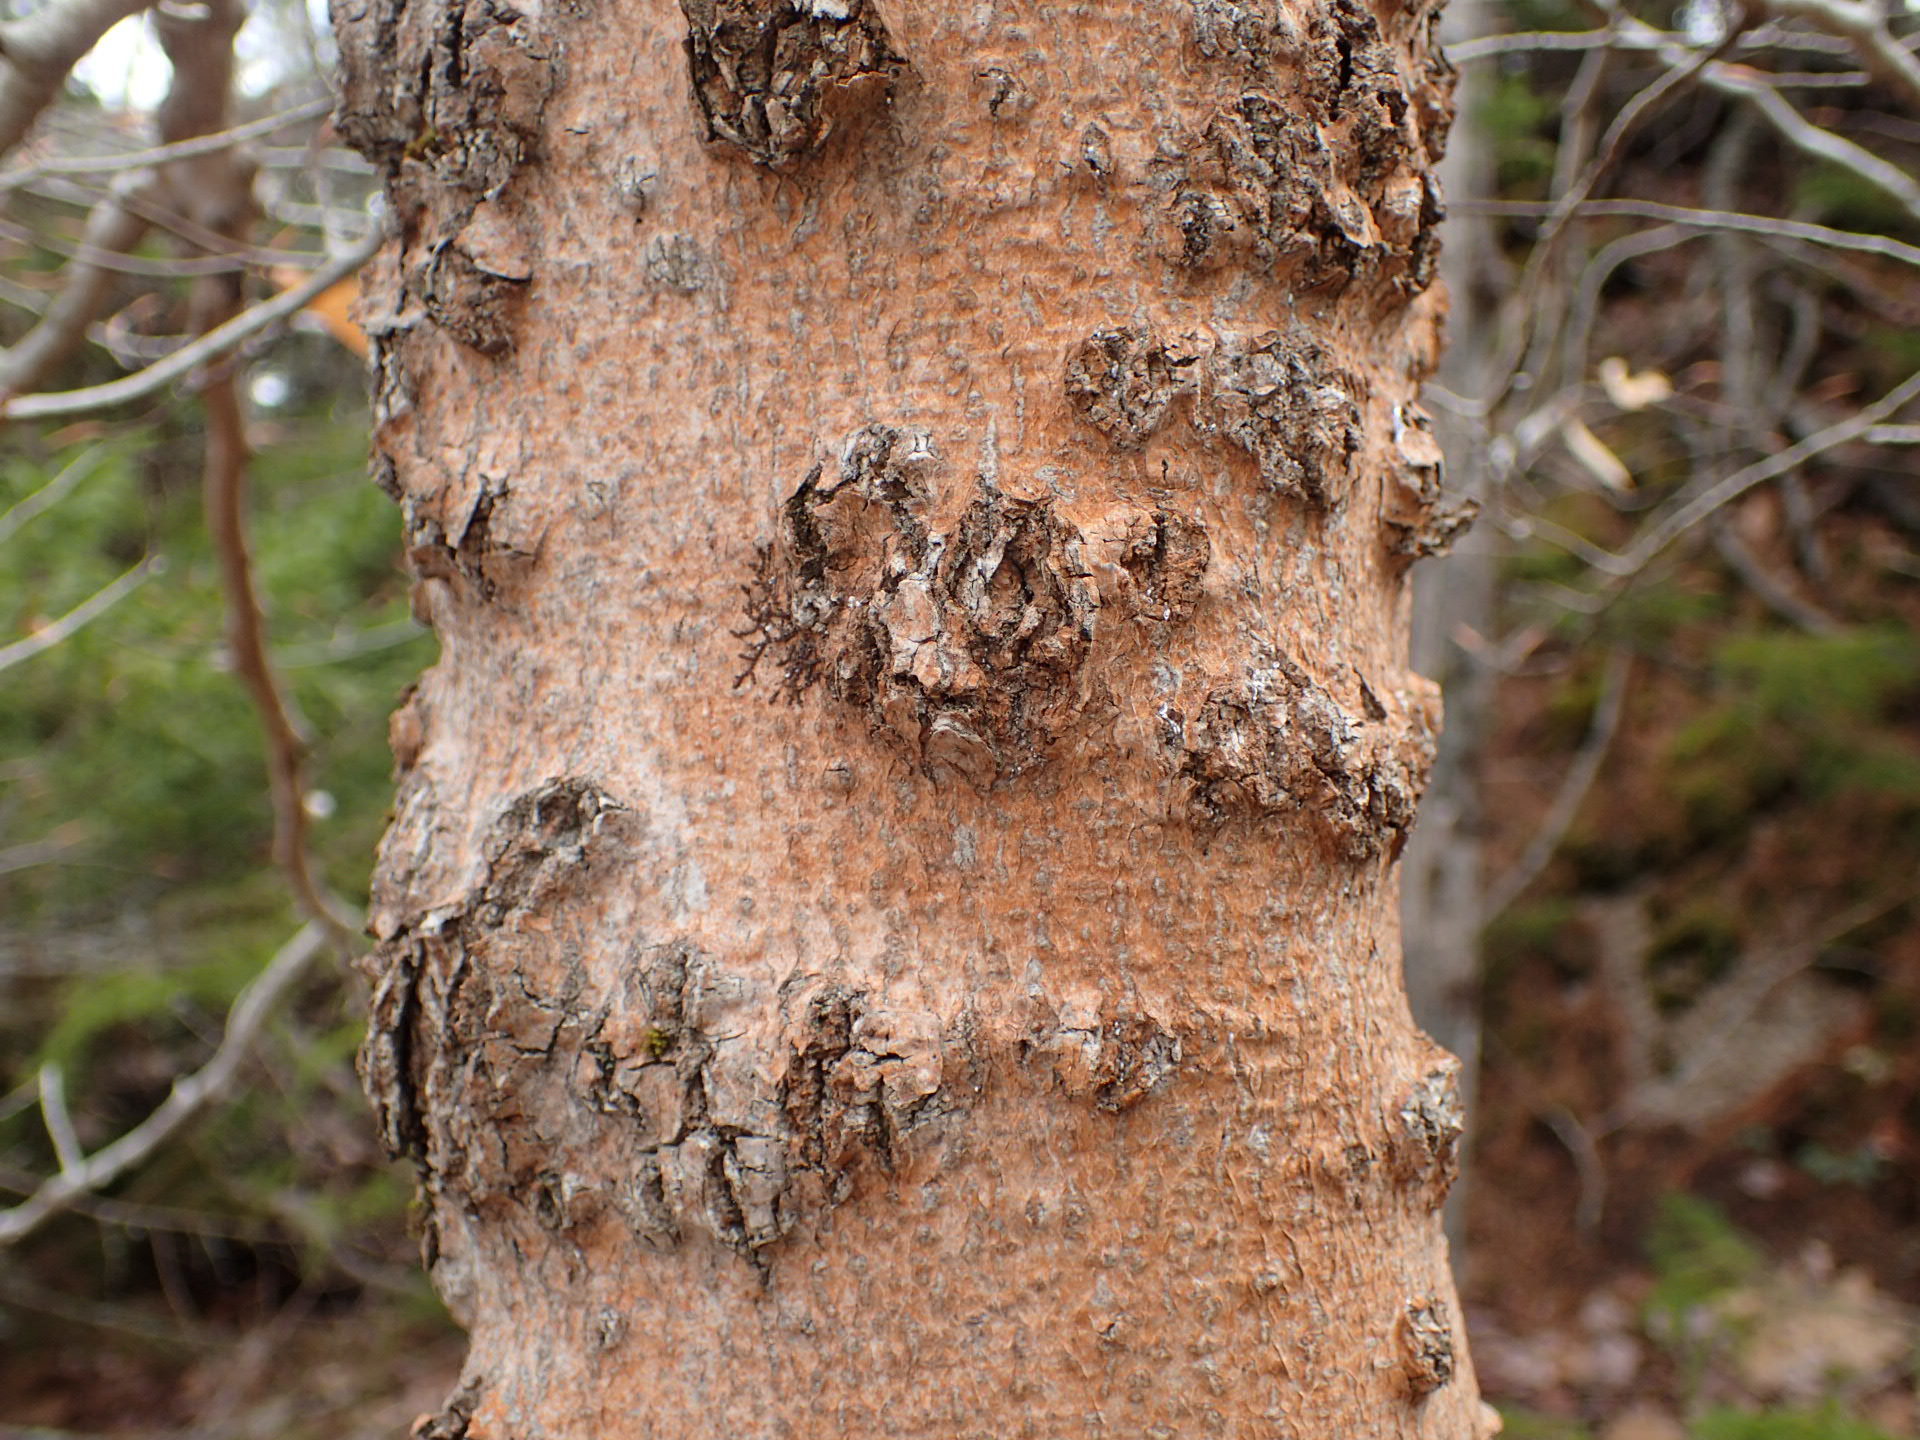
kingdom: Plantae
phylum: Tracheophyta
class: Magnoliopsida
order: Fagales
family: Fagaceae
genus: Fagus
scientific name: Fagus grandifolia
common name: American beech
